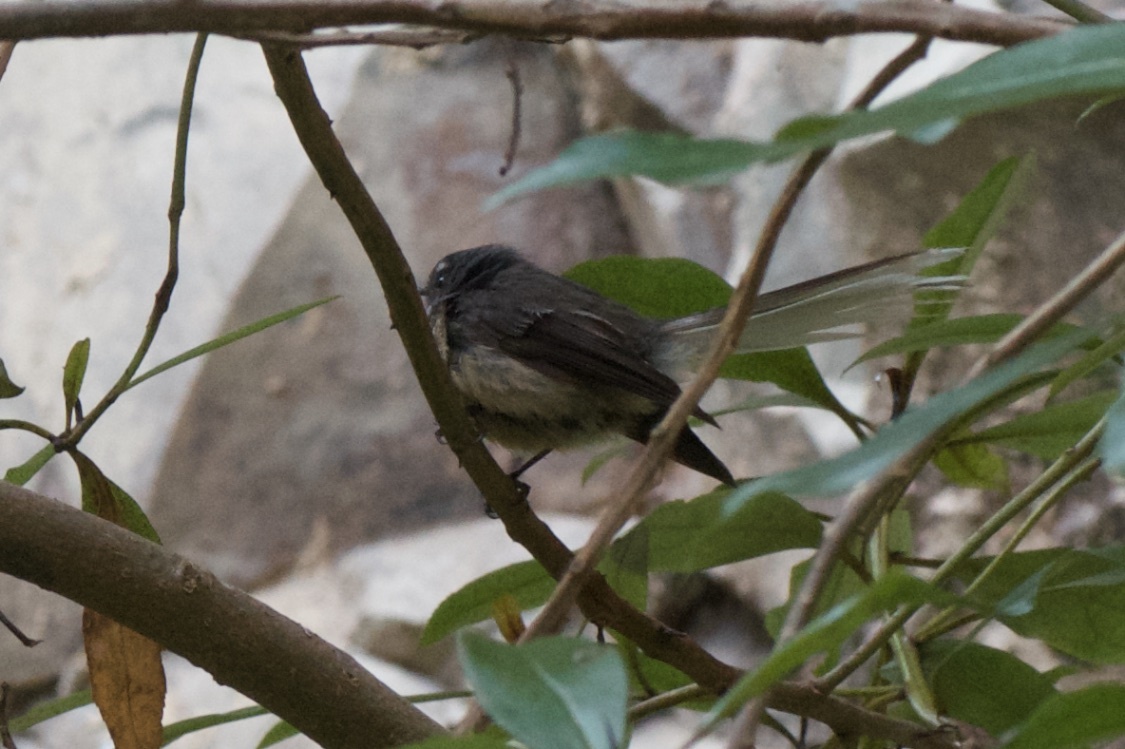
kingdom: Animalia
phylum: Chordata
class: Aves
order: Passeriformes
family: Rhipiduridae
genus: Rhipidura
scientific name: Rhipidura fuliginosa
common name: New zealand fantail
